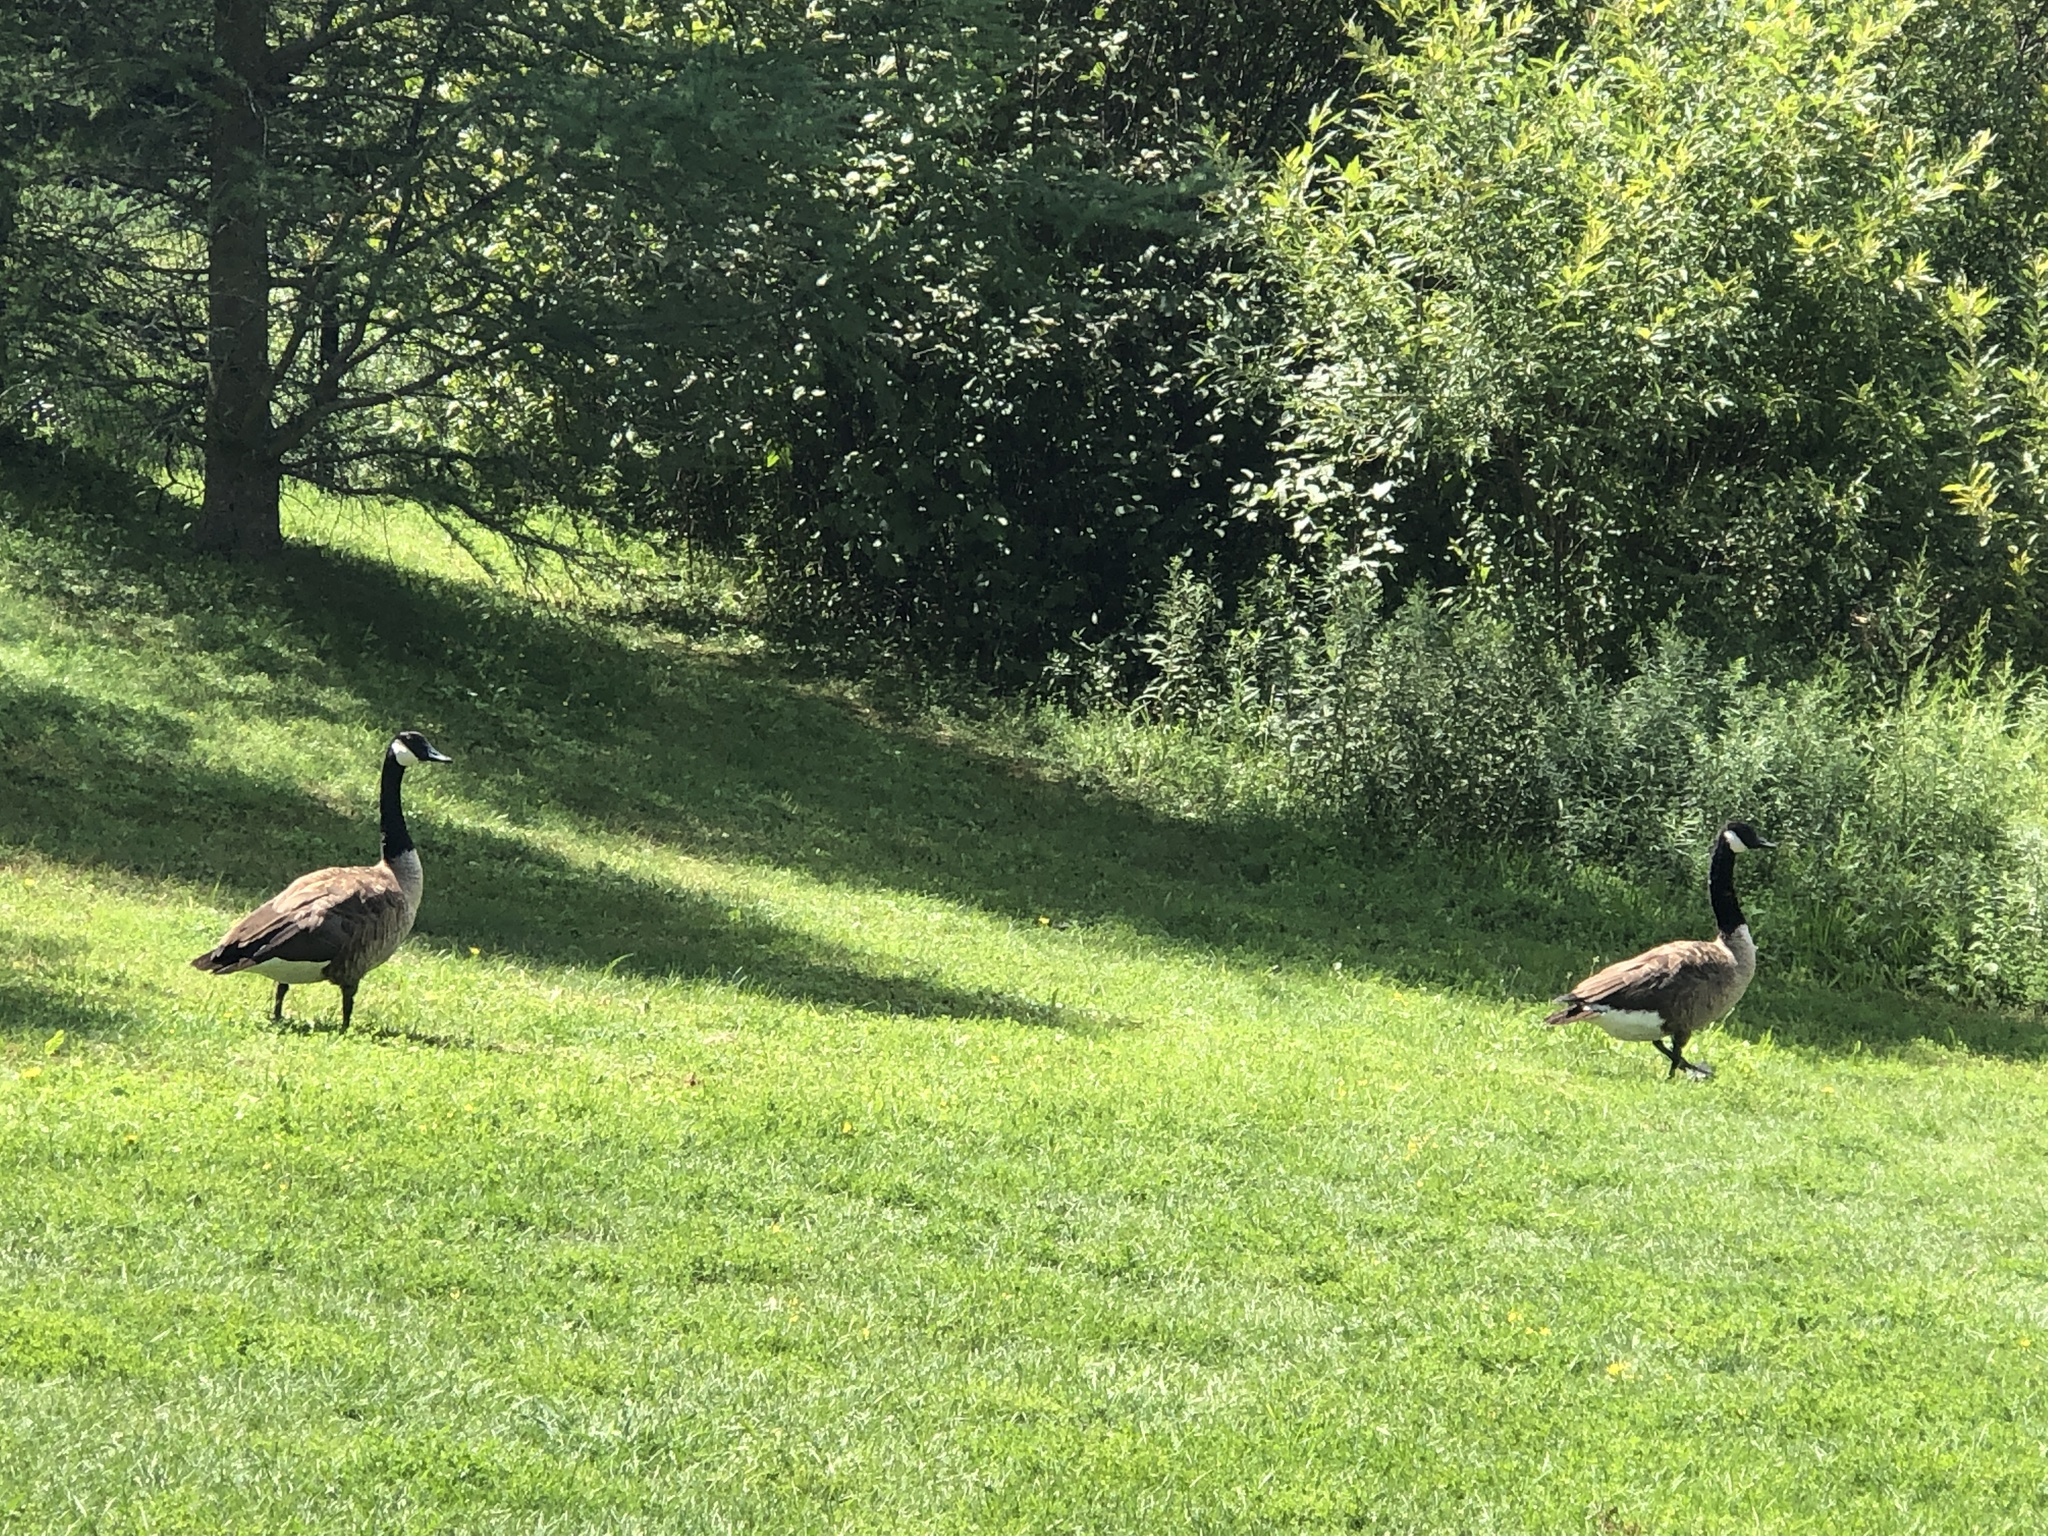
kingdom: Animalia
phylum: Chordata
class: Aves
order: Anseriformes
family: Anatidae
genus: Branta
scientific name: Branta canadensis
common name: Canada goose
